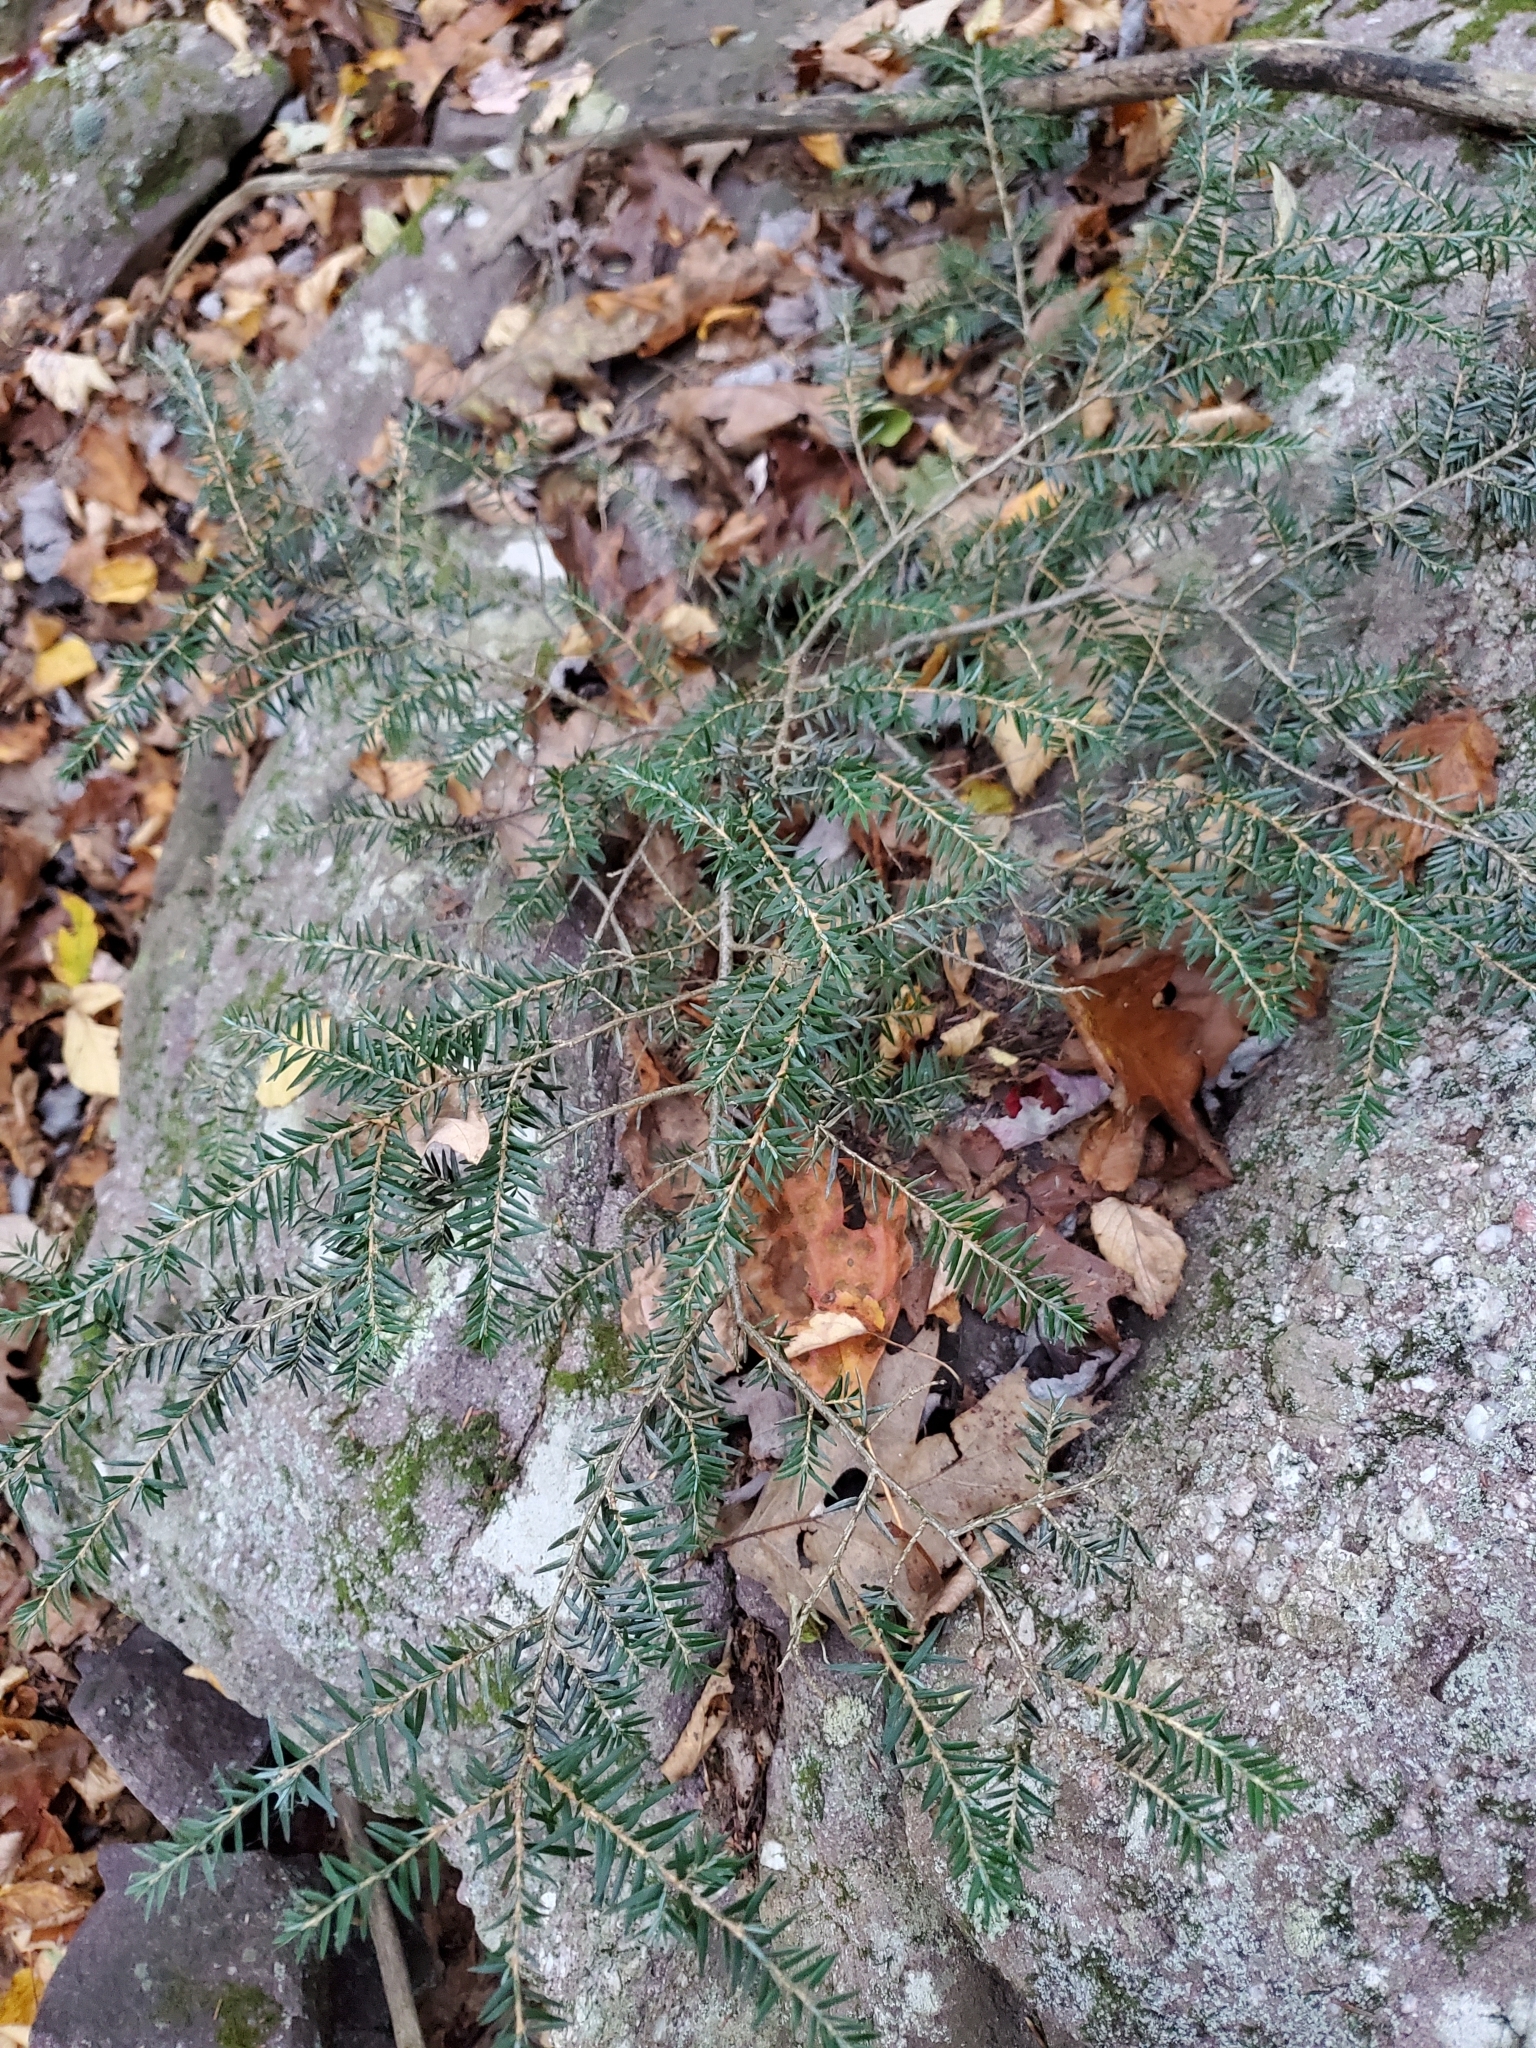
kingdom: Plantae
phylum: Tracheophyta
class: Pinopsida
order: Pinales
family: Pinaceae
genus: Tsuga
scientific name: Tsuga canadensis
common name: Eastern hemlock
